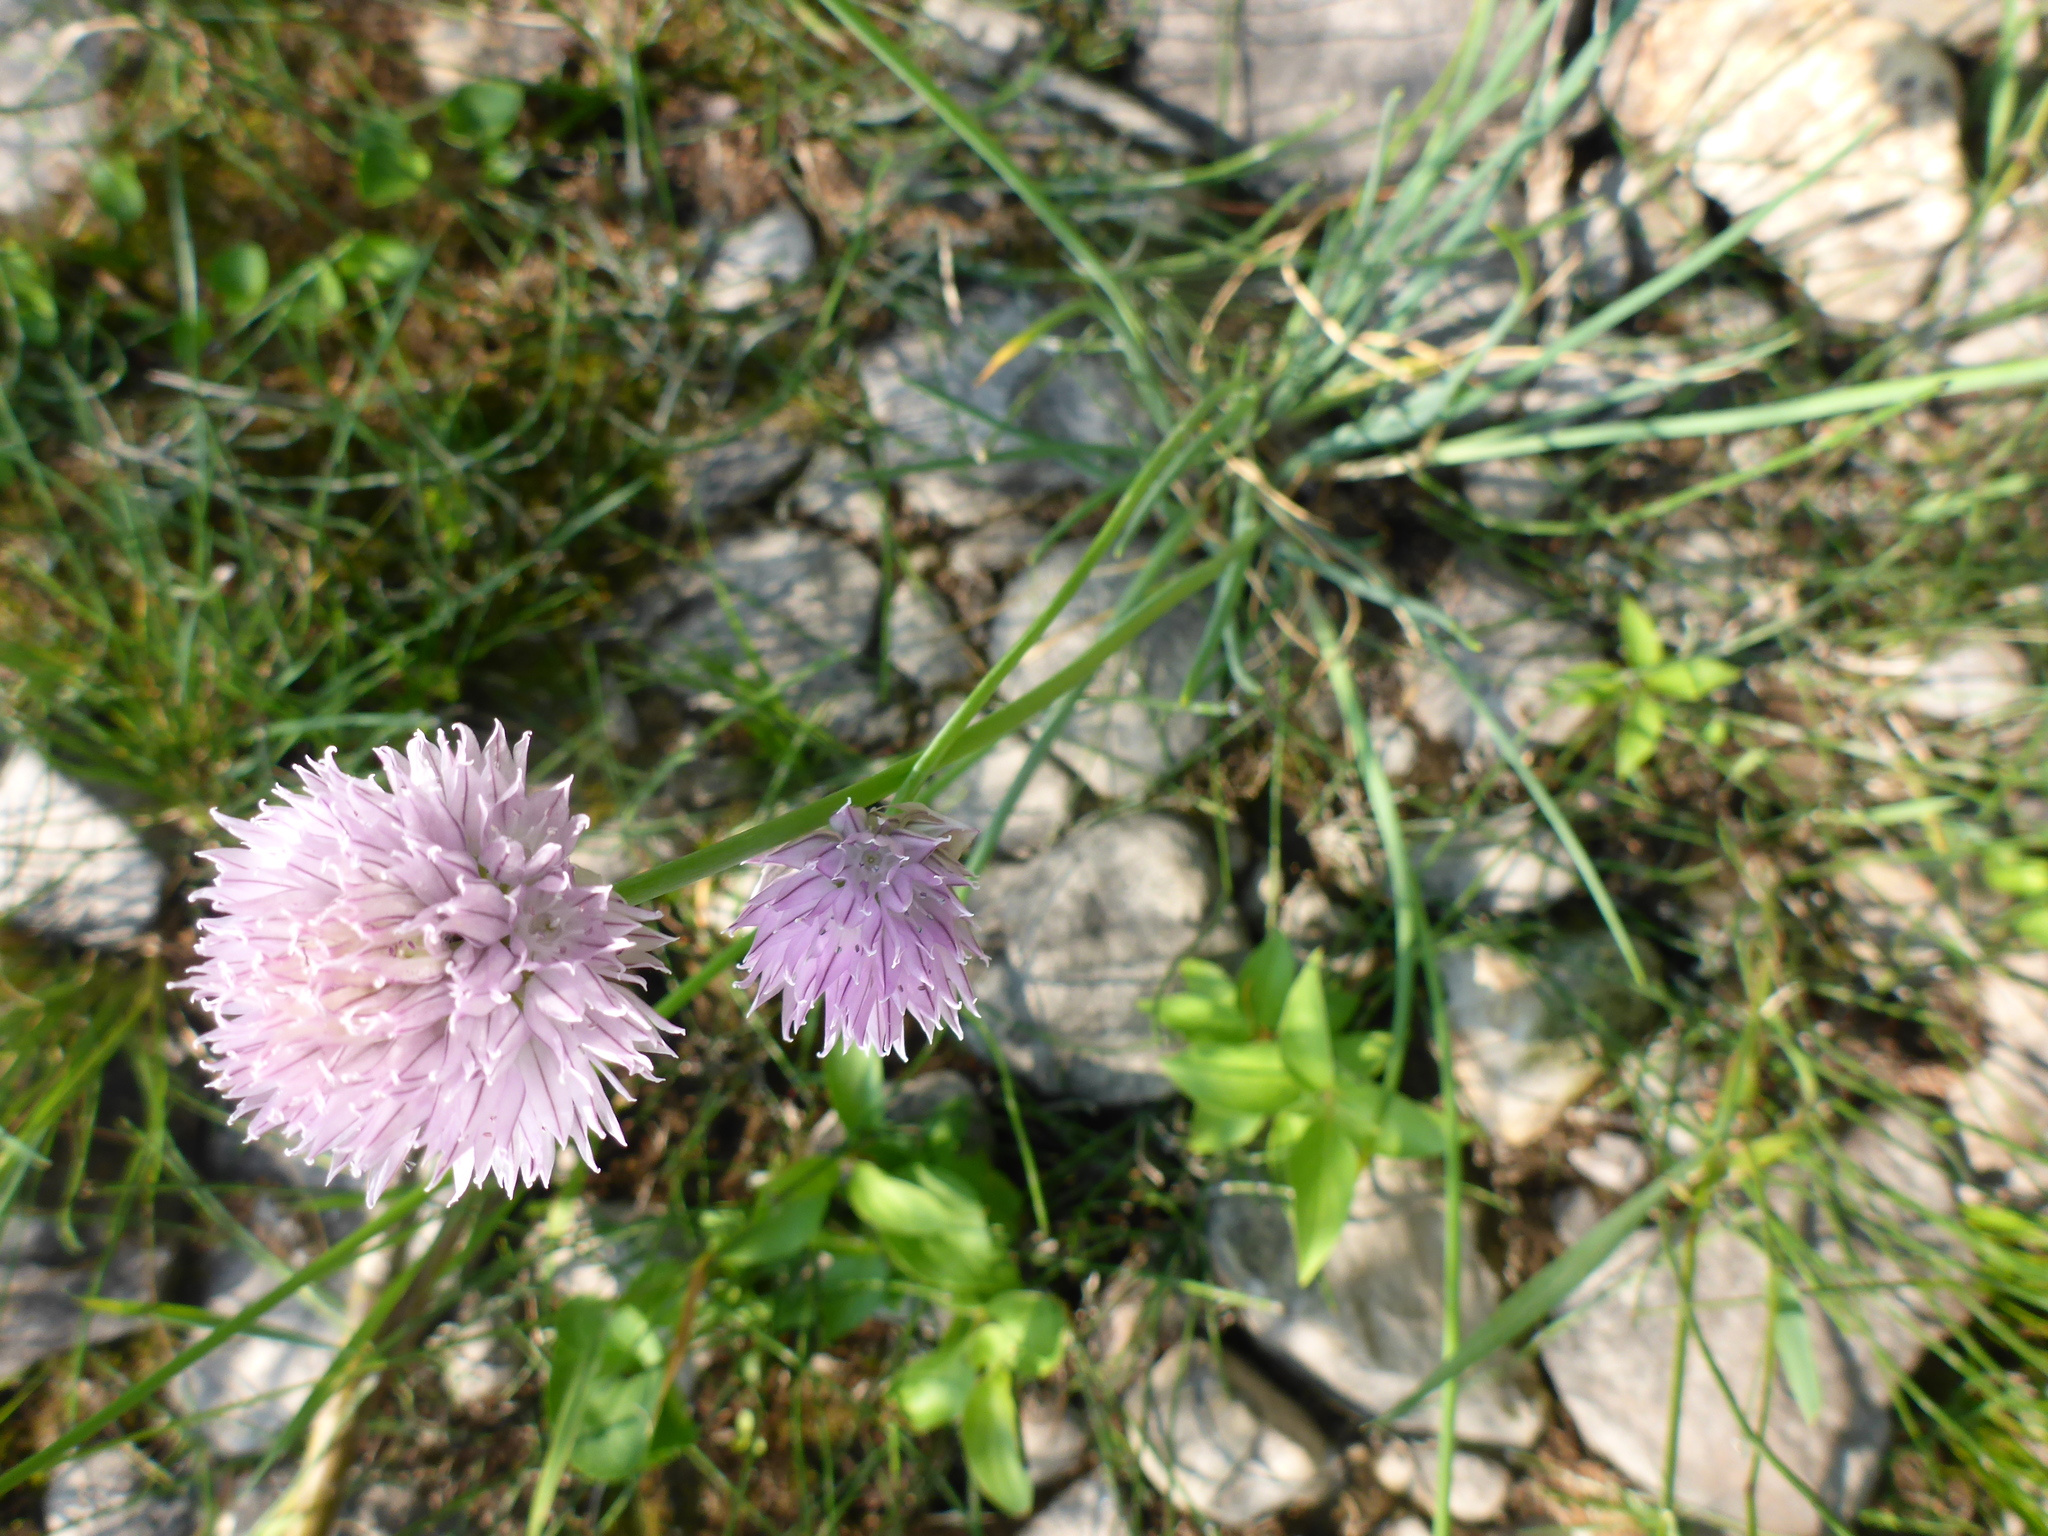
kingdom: Plantae
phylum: Tracheophyta
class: Liliopsida
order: Asparagales
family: Amaryllidaceae
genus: Allium
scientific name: Allium schoenoprasum
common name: Chives
